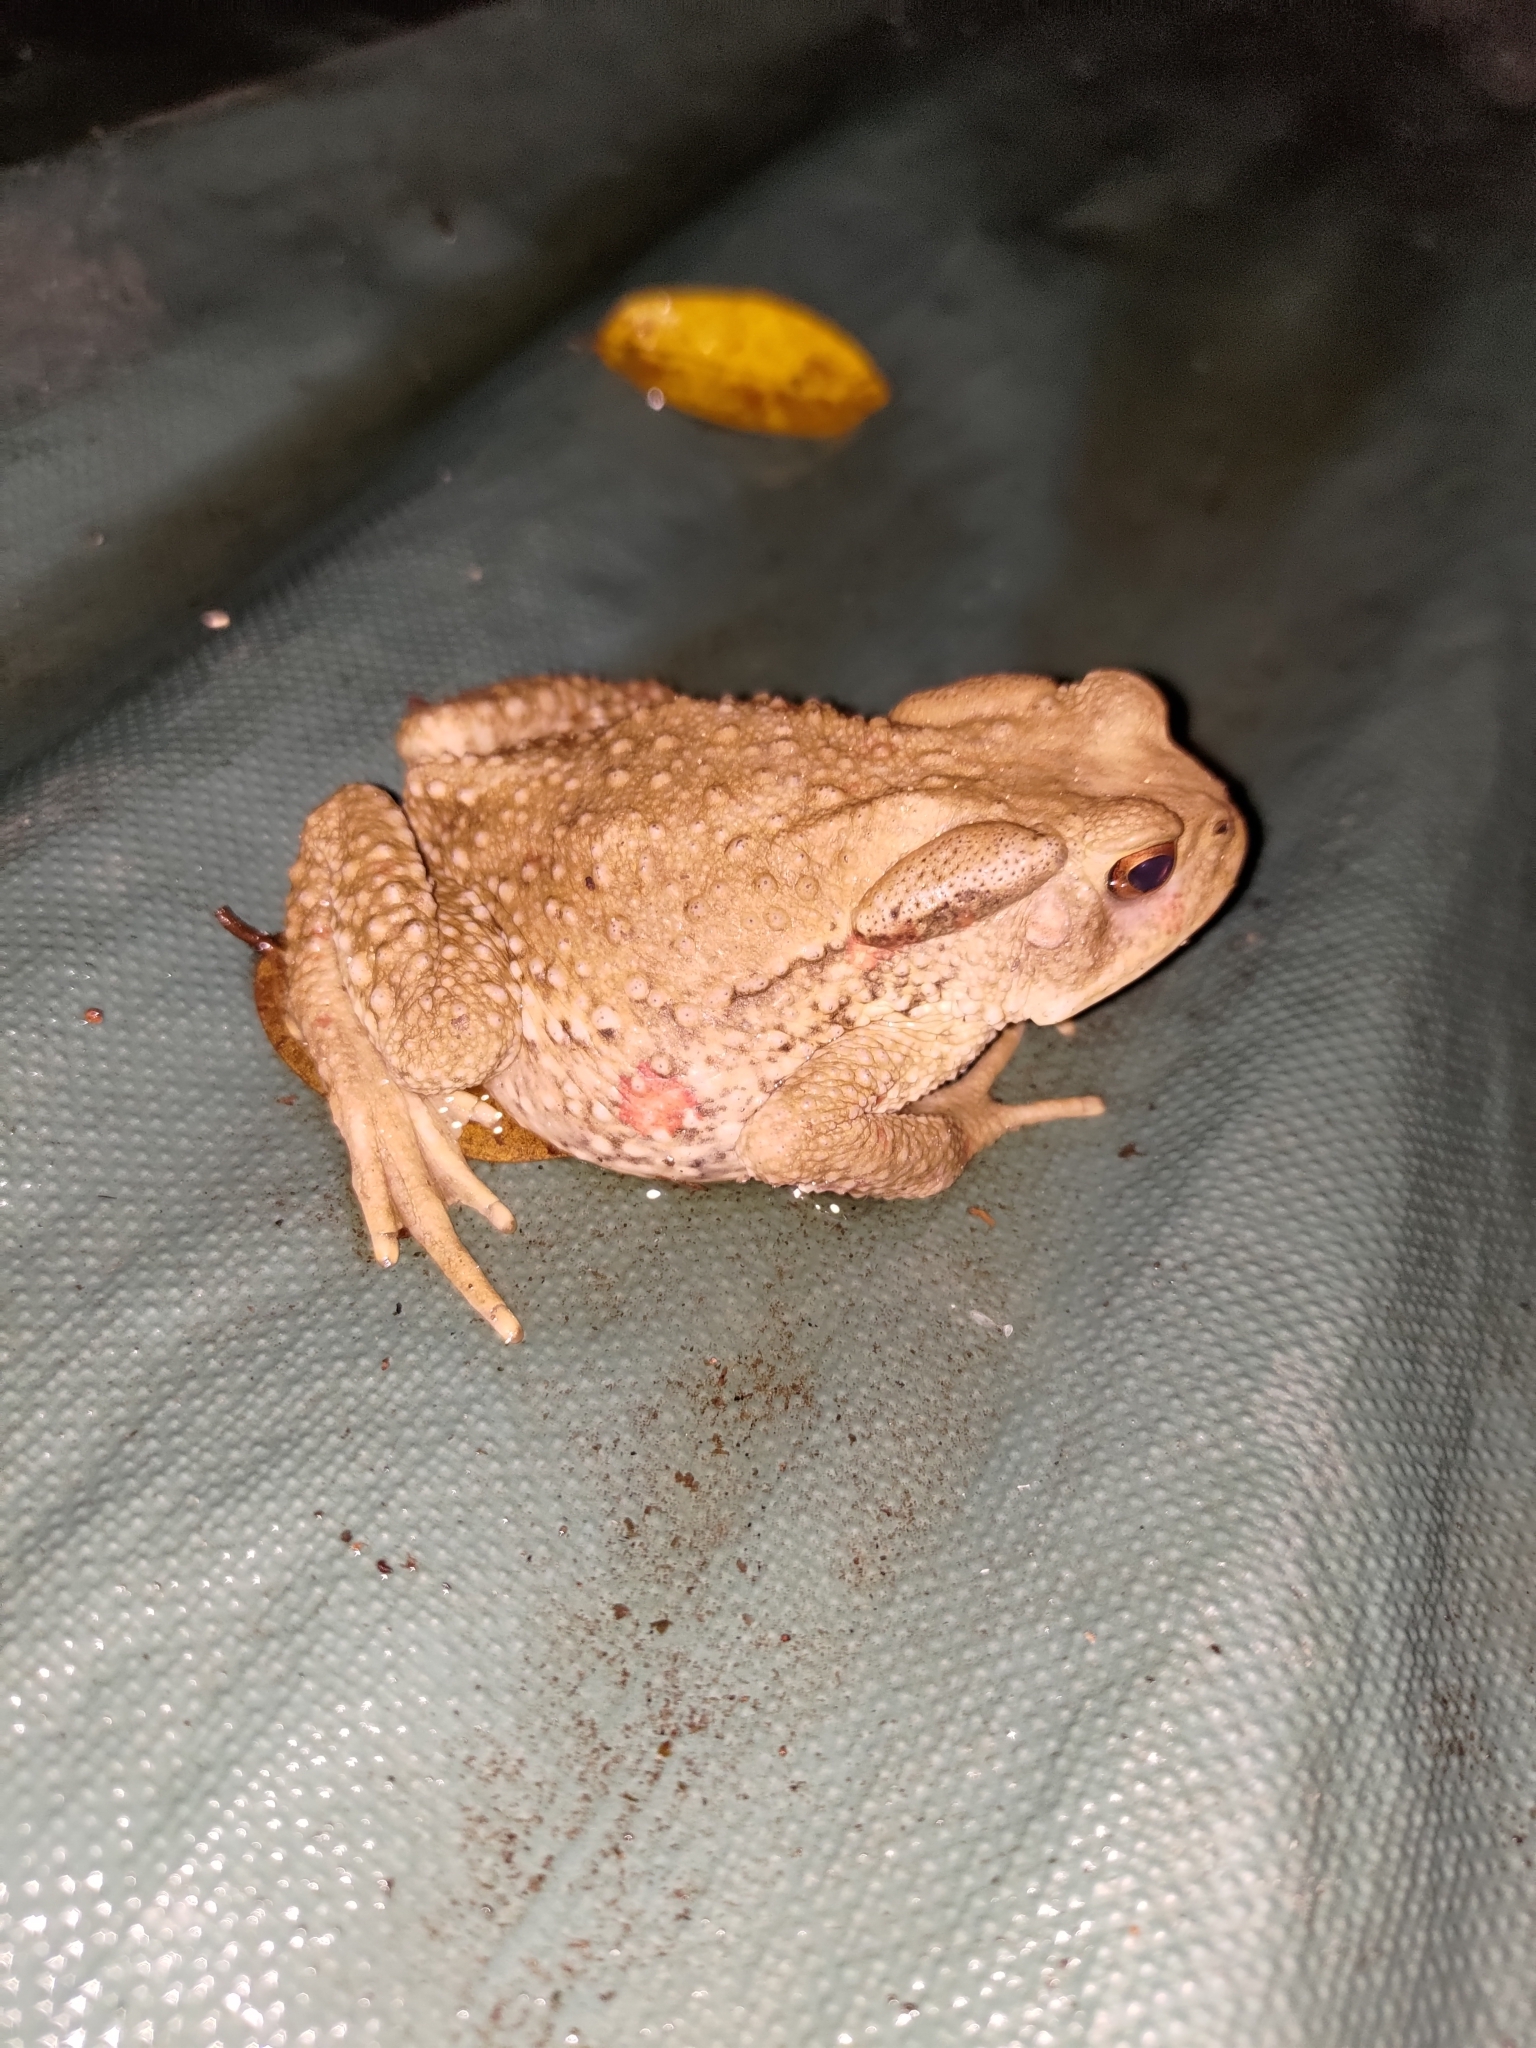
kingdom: Animalia
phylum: Chordata
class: Amphibia
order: Anura
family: Bufonidae
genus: Bufo
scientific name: Bufo bankorensis
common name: Bankor toad
